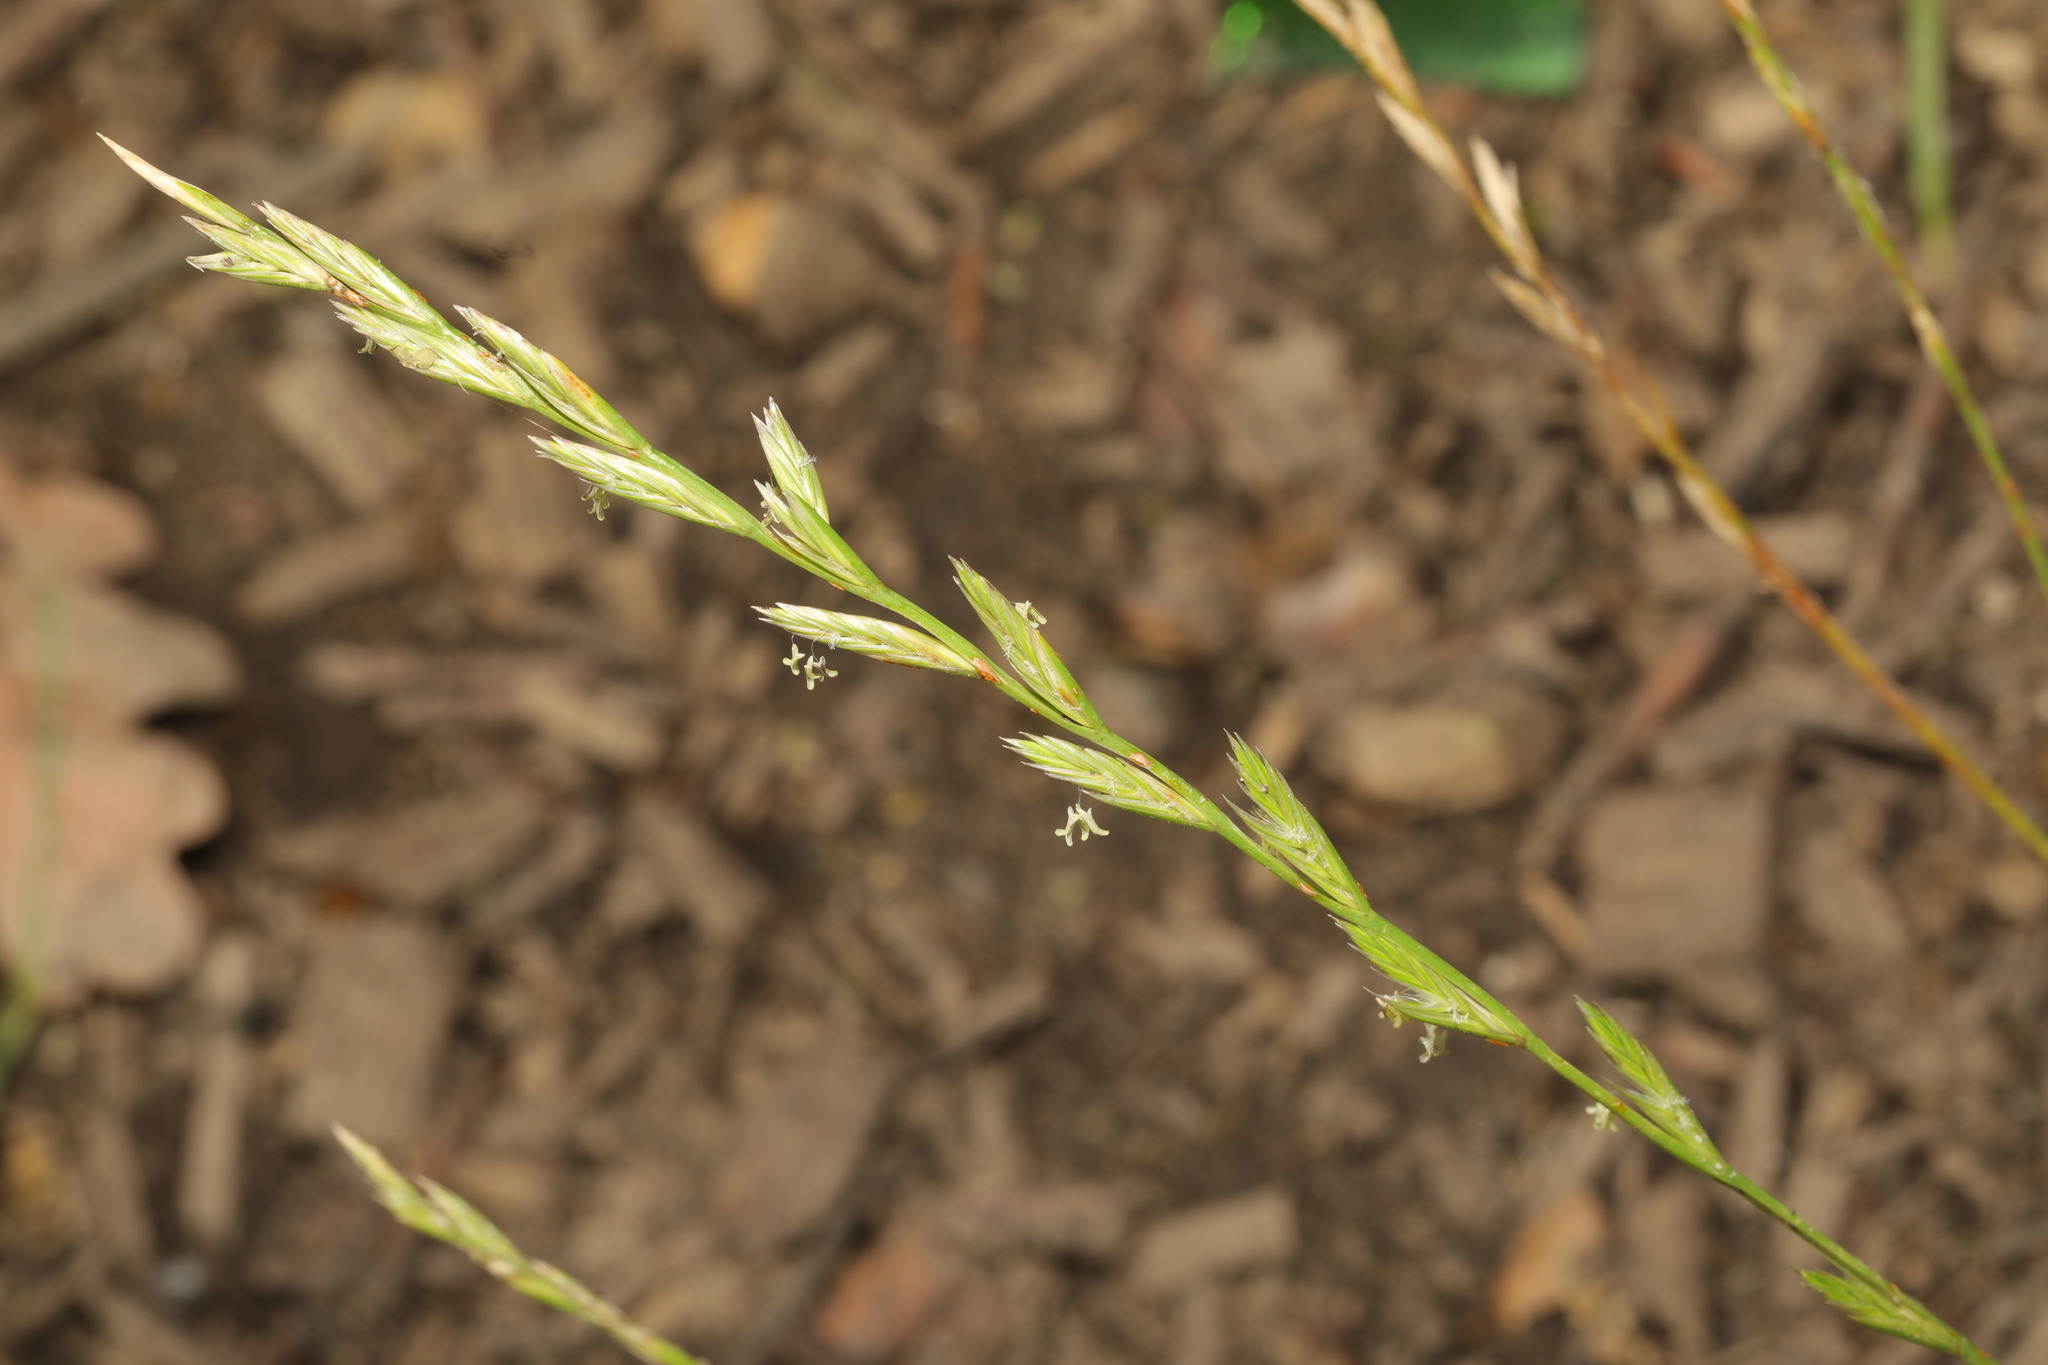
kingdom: Plantae
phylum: Tracheophyta
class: Liliopsida
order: Poales
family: Poaceae
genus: Lolium
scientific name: Lolium perenne
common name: Perennial ryegrass
